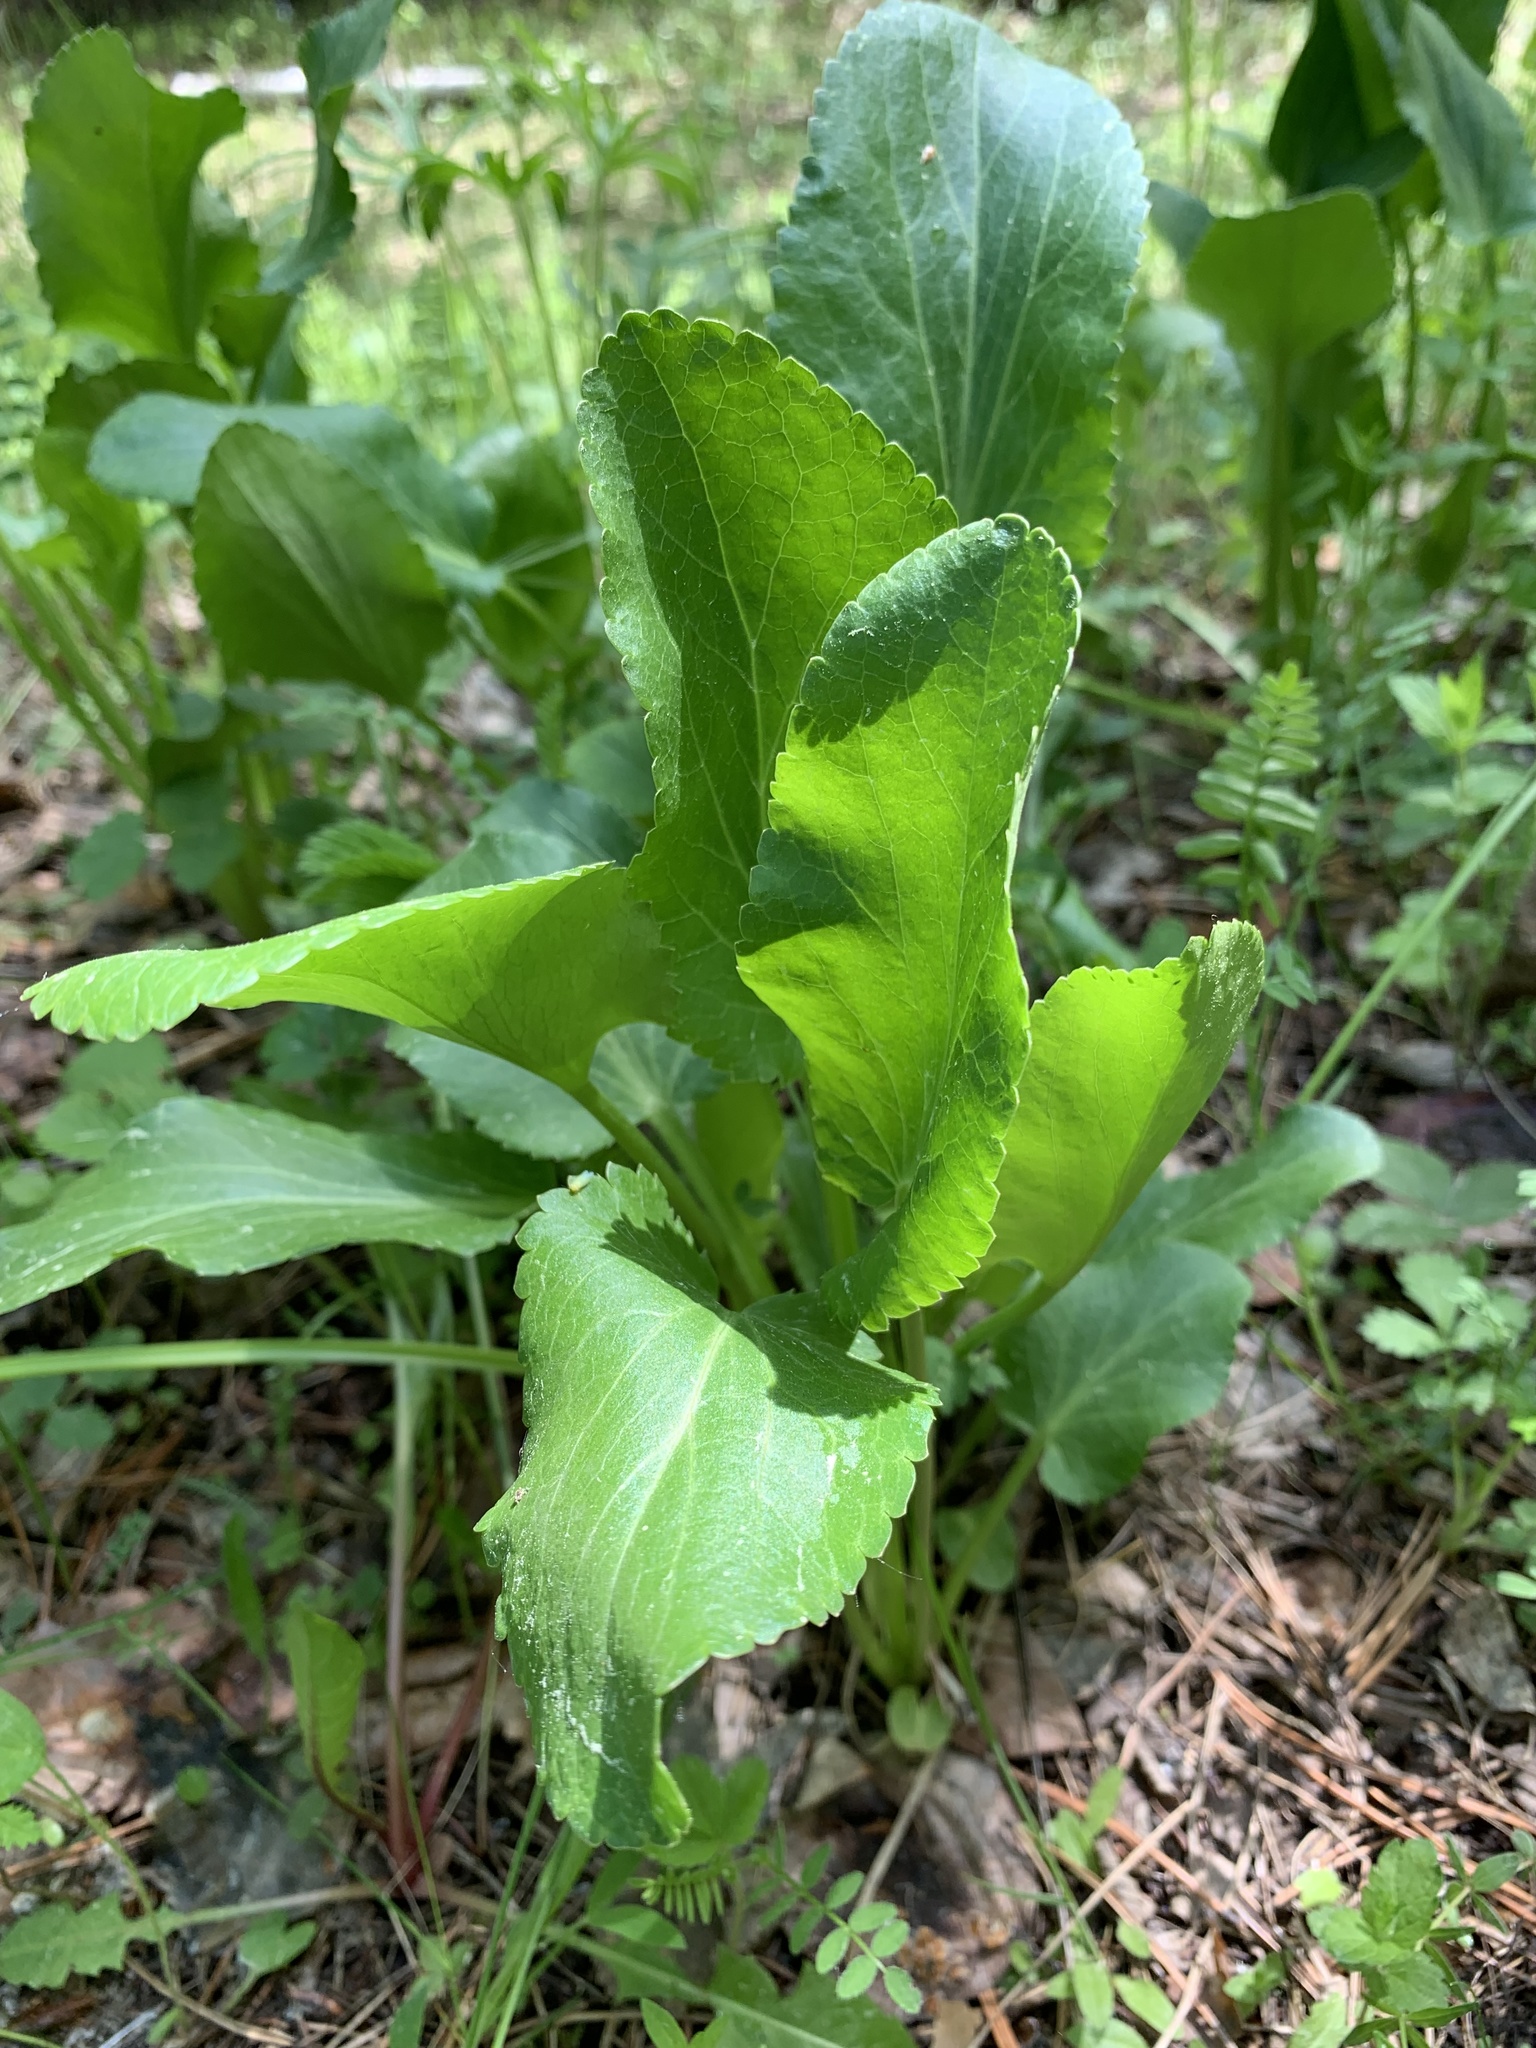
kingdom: Plantae
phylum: Tracheophyta
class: Magnoliopsida
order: Apiales
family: Apiaceae
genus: Eryngium
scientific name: Eryngium planum
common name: Blue eryngo
